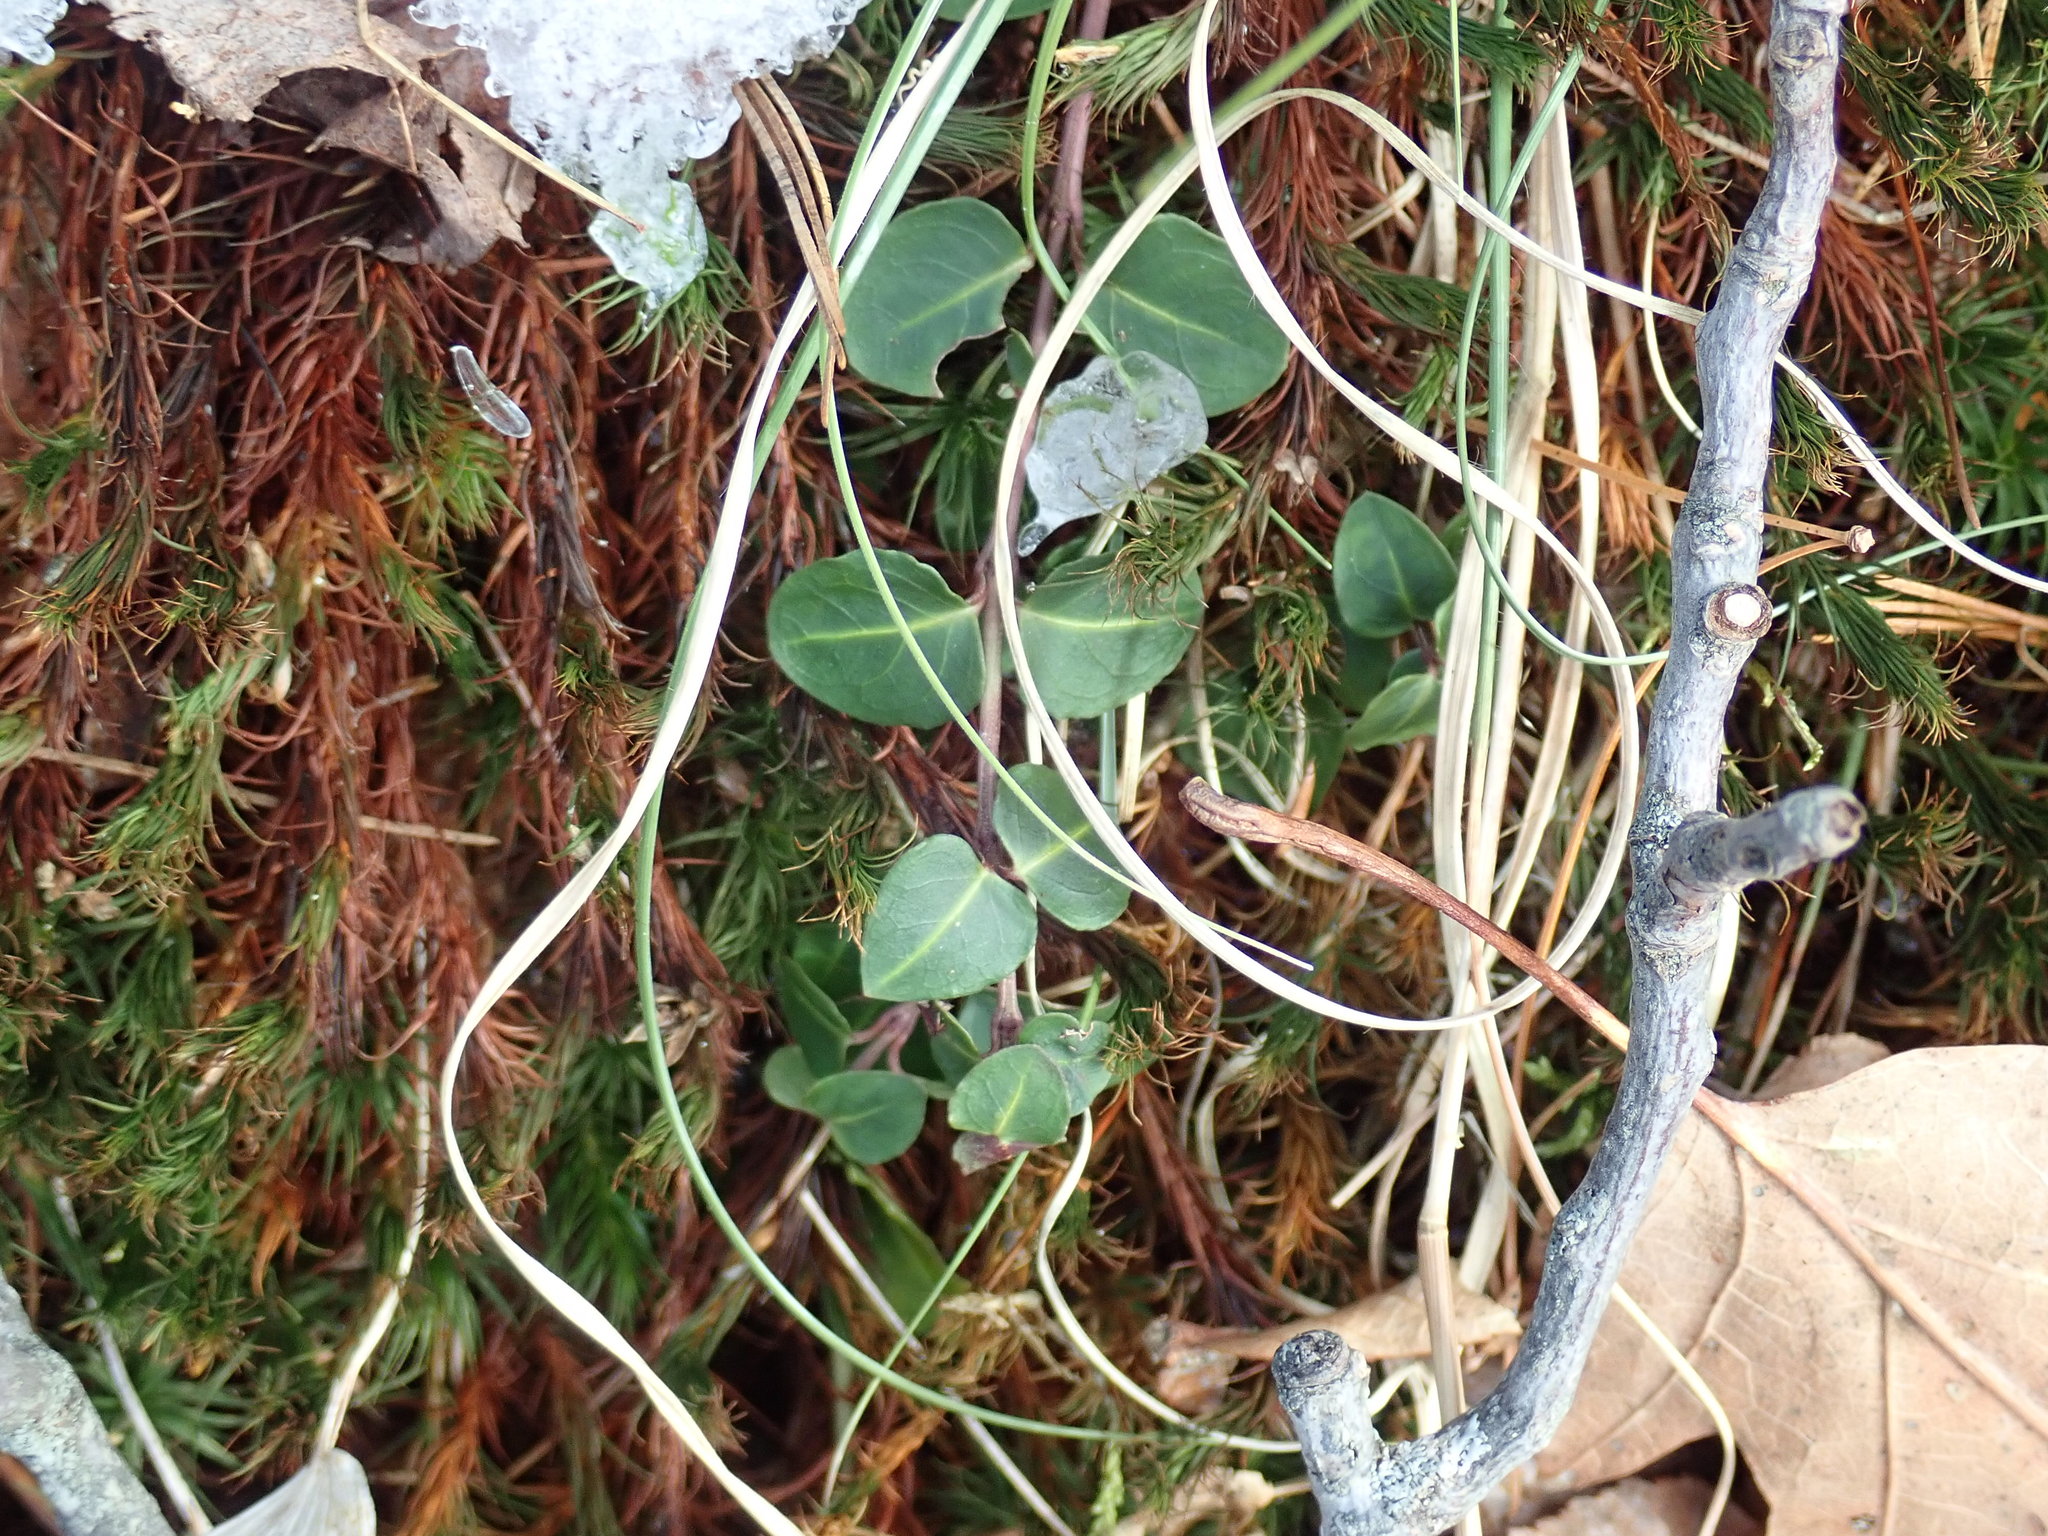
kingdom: Plantae
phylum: Tracheophyta
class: Magnoliopsida
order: Gentianales
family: Rubiaceae
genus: Mitchella
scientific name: Mitchella repens
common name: Partridge-berry
